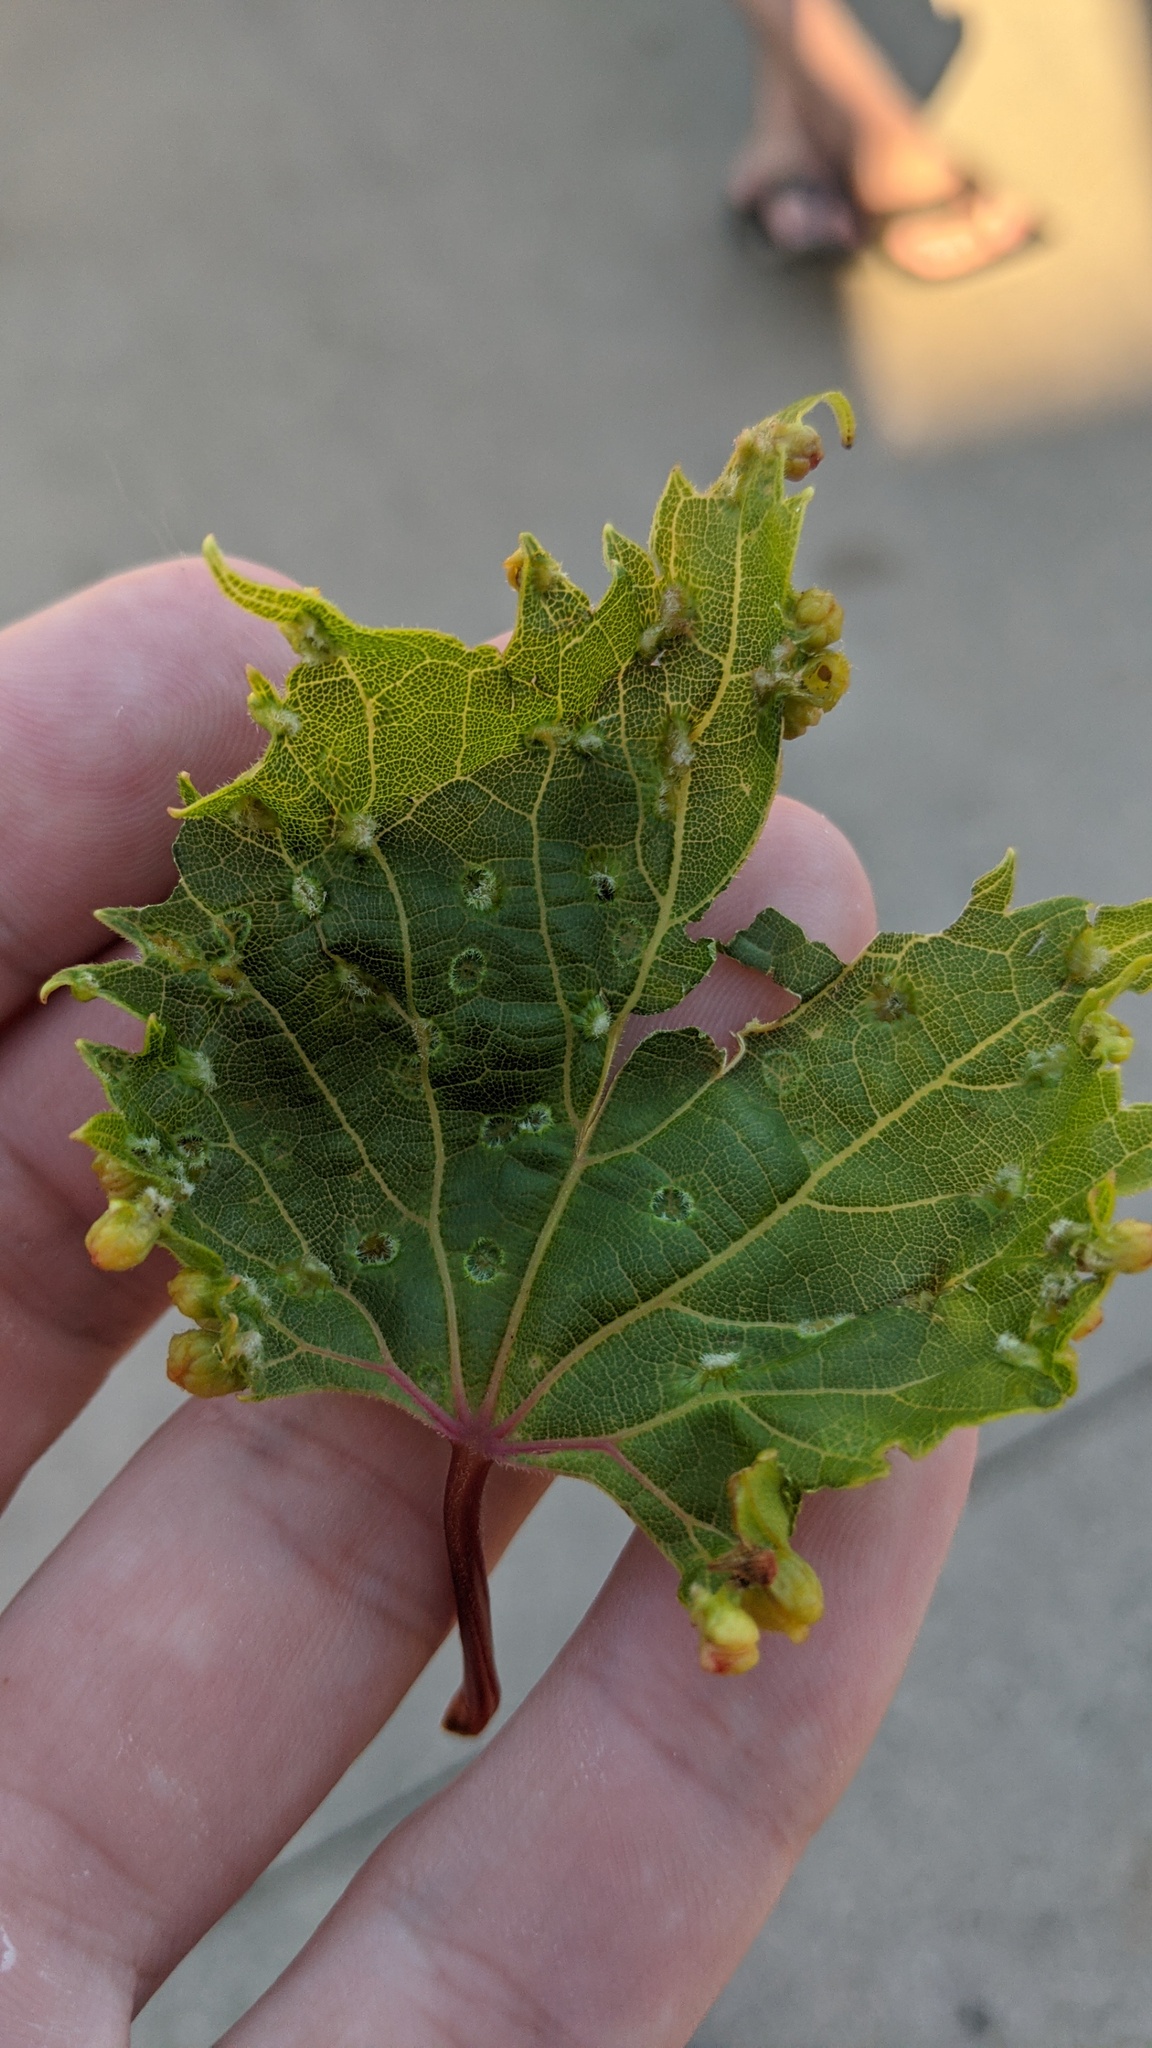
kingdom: Animalia
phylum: Arthropoda
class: Insecta
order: Hemiptera
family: Phylloxeridae
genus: Daktulosphaira
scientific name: Daktulosphaira vitifoliae
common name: Grape phylloxera
